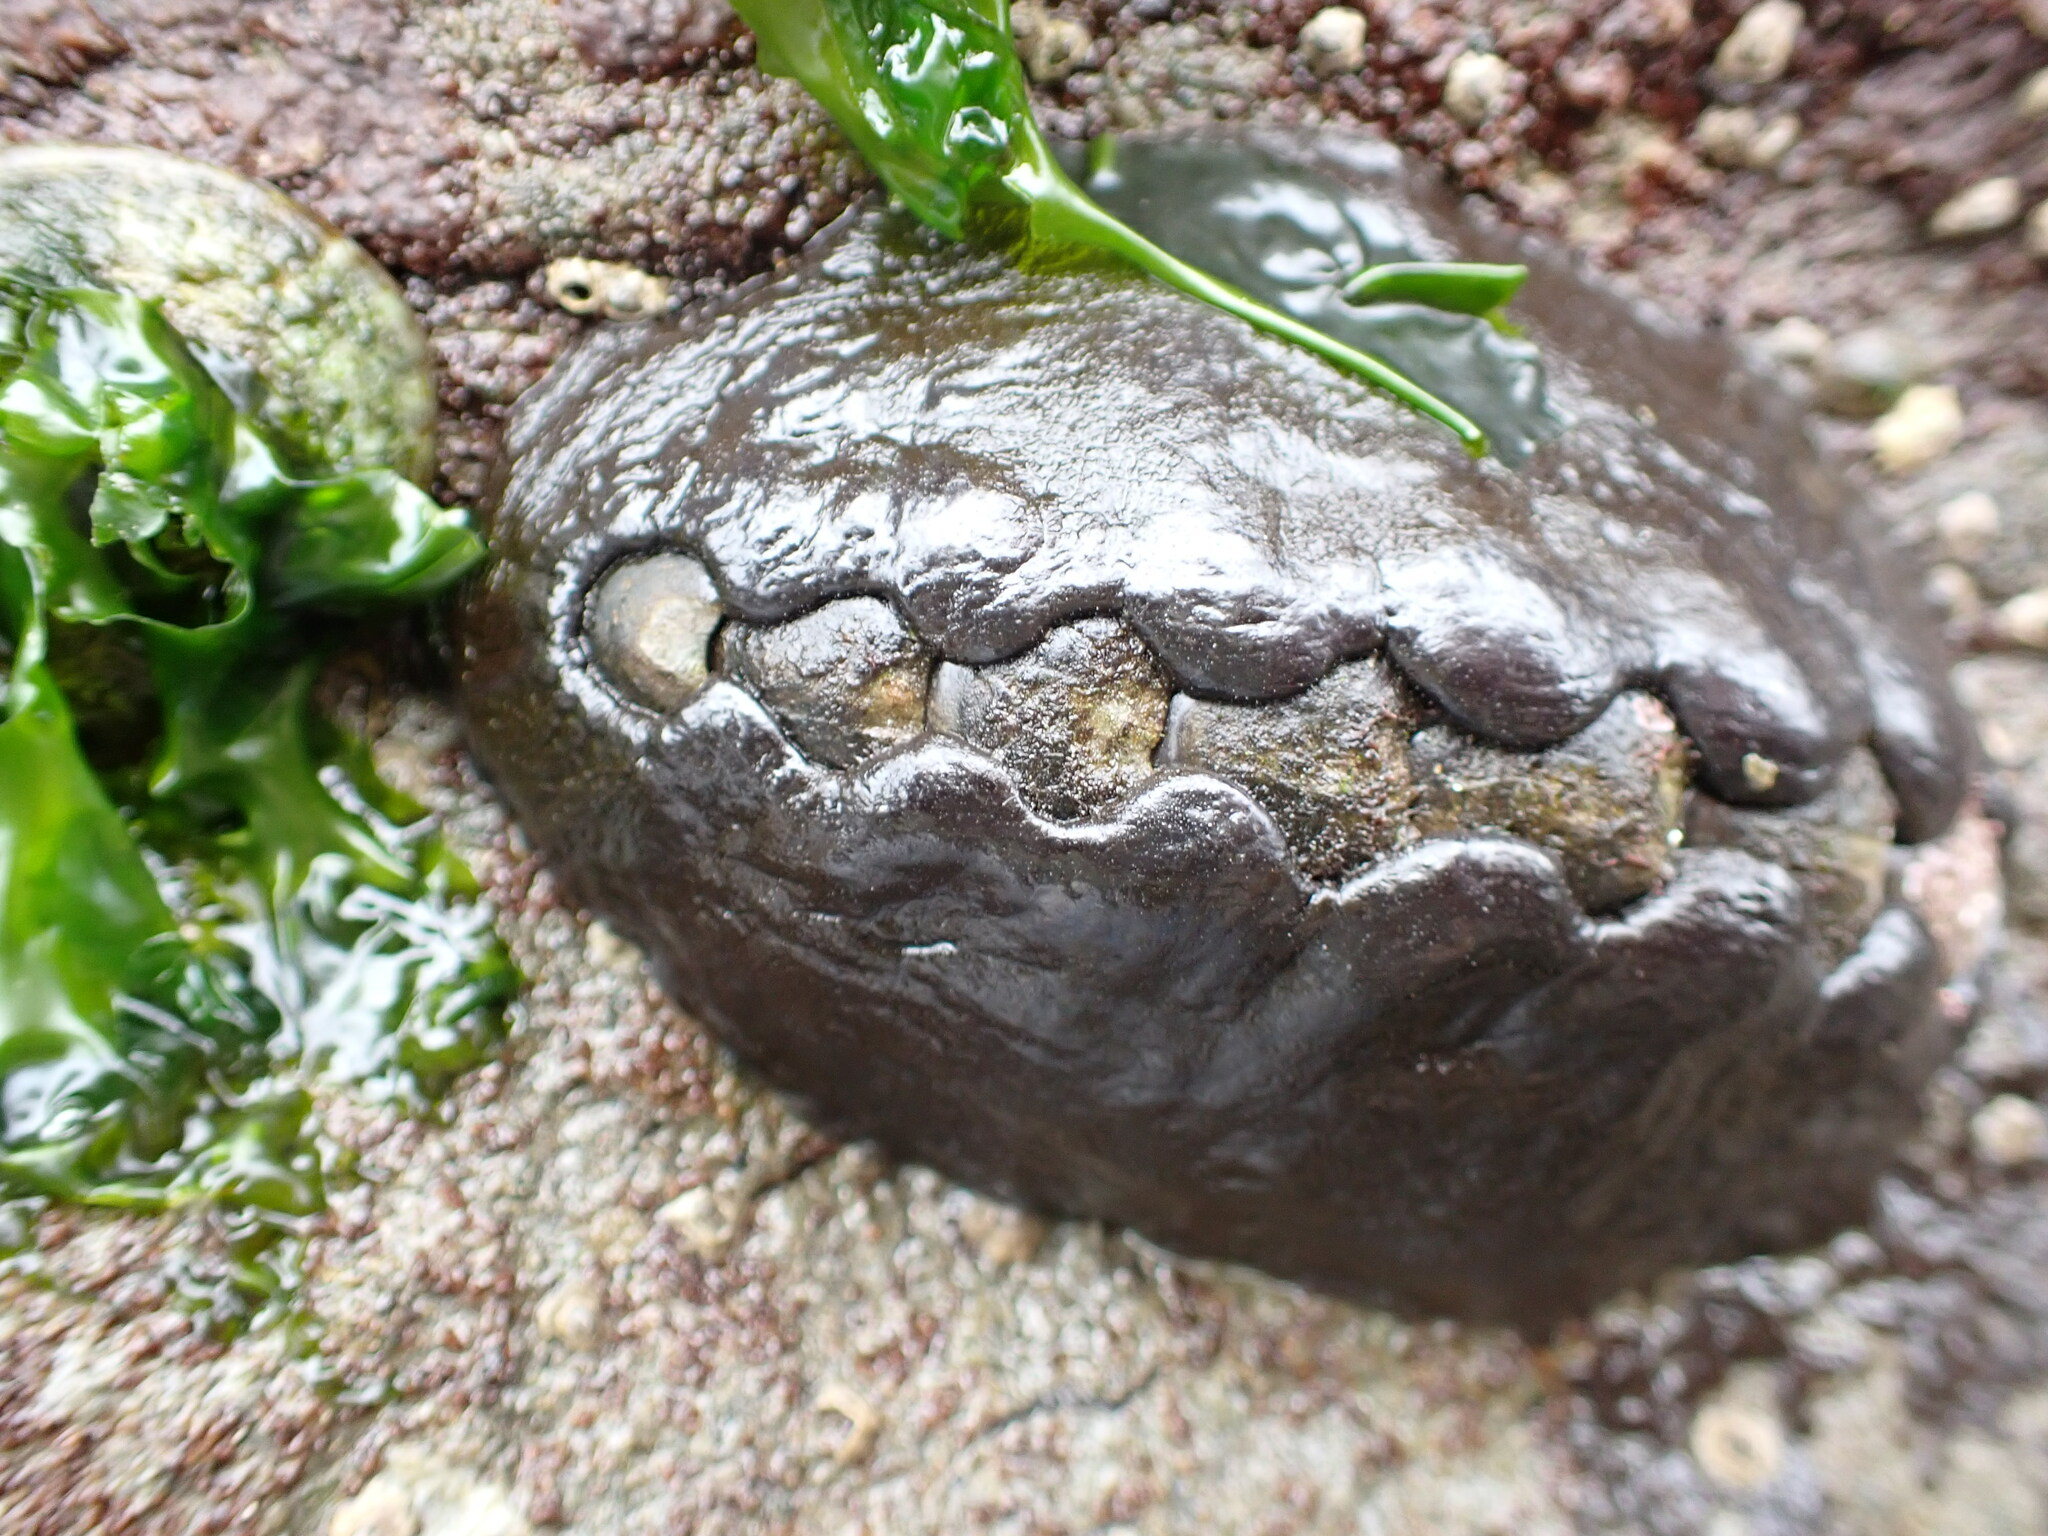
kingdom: Animalia
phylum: Mollusca
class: Polyplacophora
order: Chitonida
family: Mopaliidae
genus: Katharina
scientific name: Katharina tunicata
